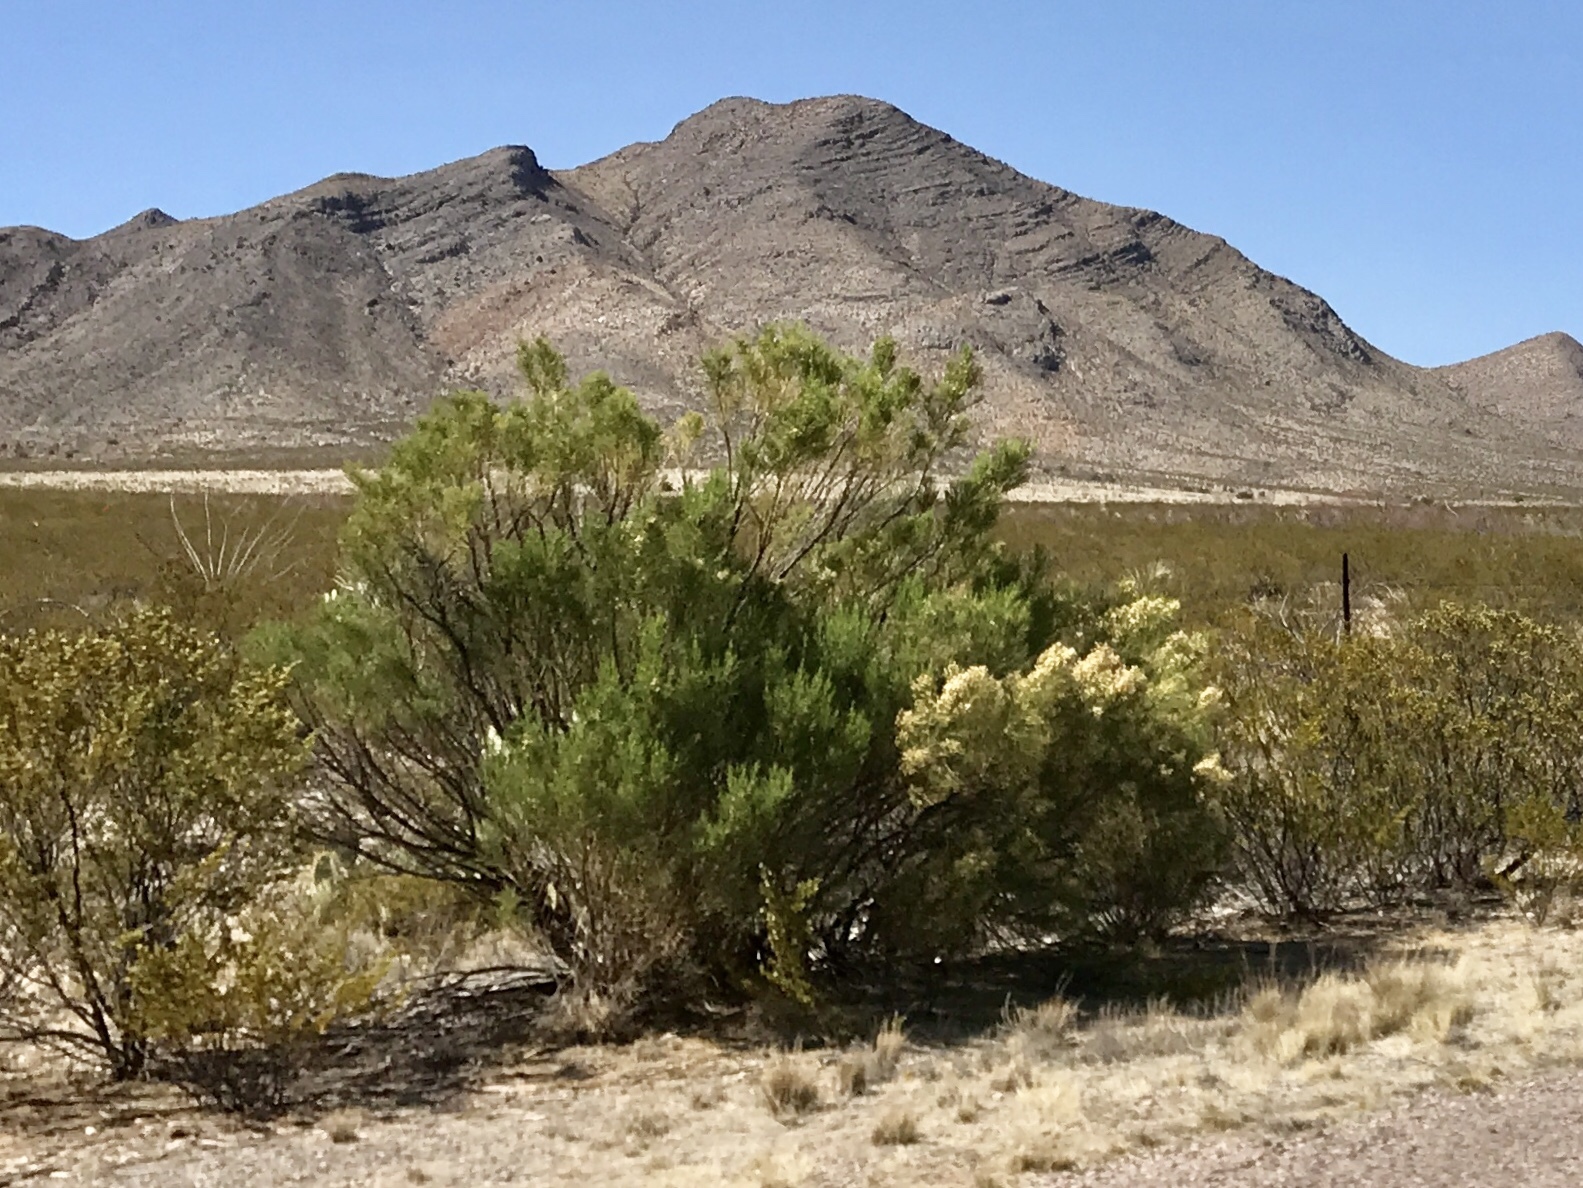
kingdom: Plantae
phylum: Tracheophyta
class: Magnoliopsida
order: Asterales
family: Asteraceae
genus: Baccharis
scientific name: Baccharis sarothroides
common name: Desert-broom
